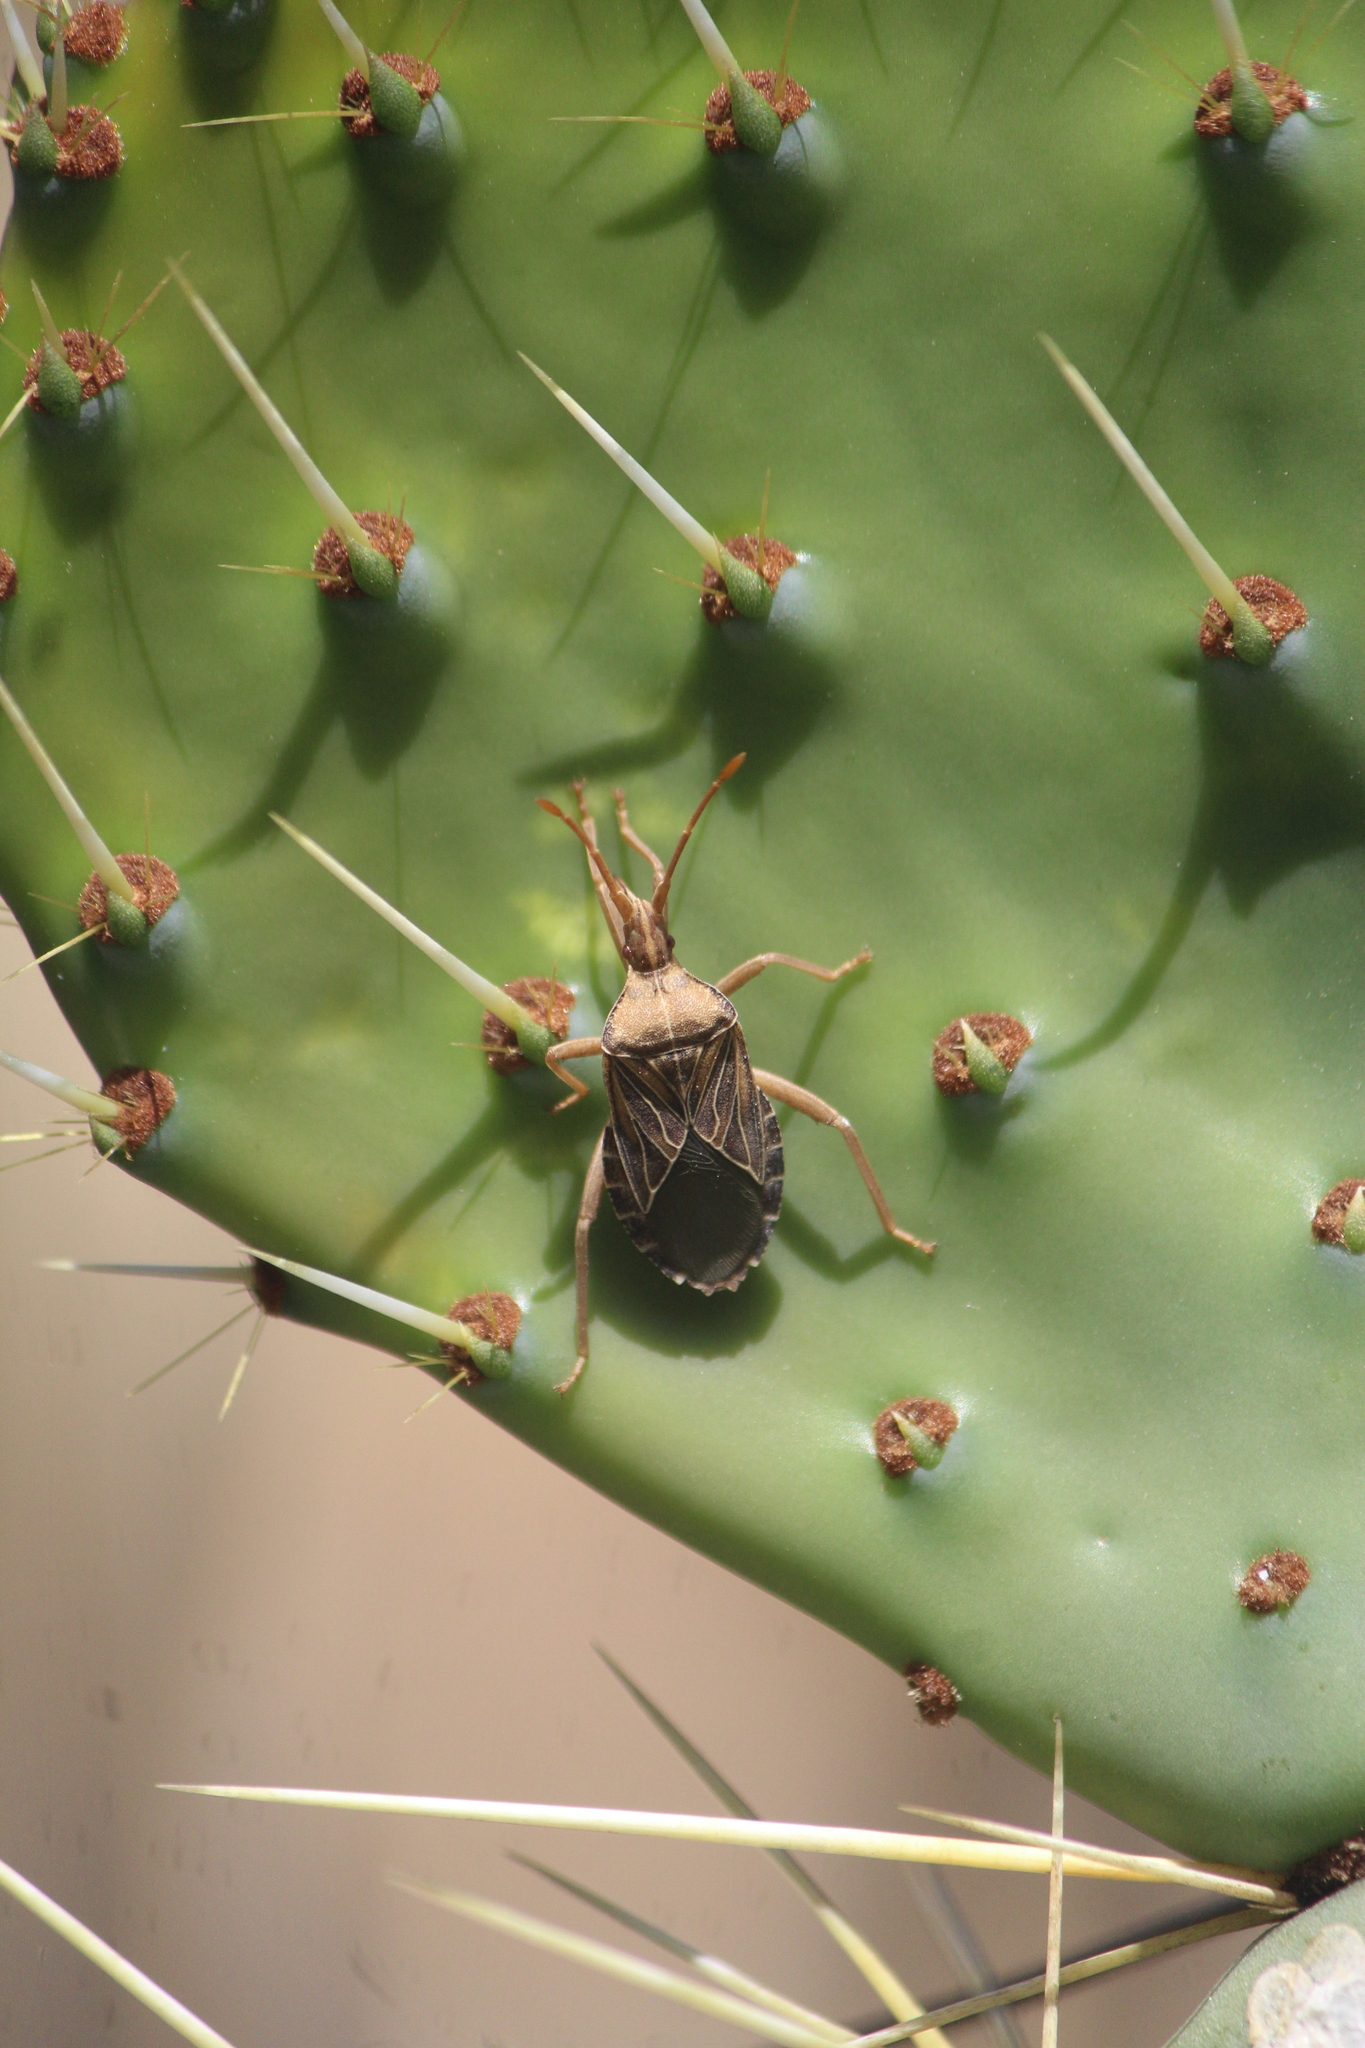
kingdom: Animalia
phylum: Arthropoda
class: Insecta
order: Hemiptera
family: Coreidae
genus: Chelinidea
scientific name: Chelinidea tabulata
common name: Prickly pear bug
